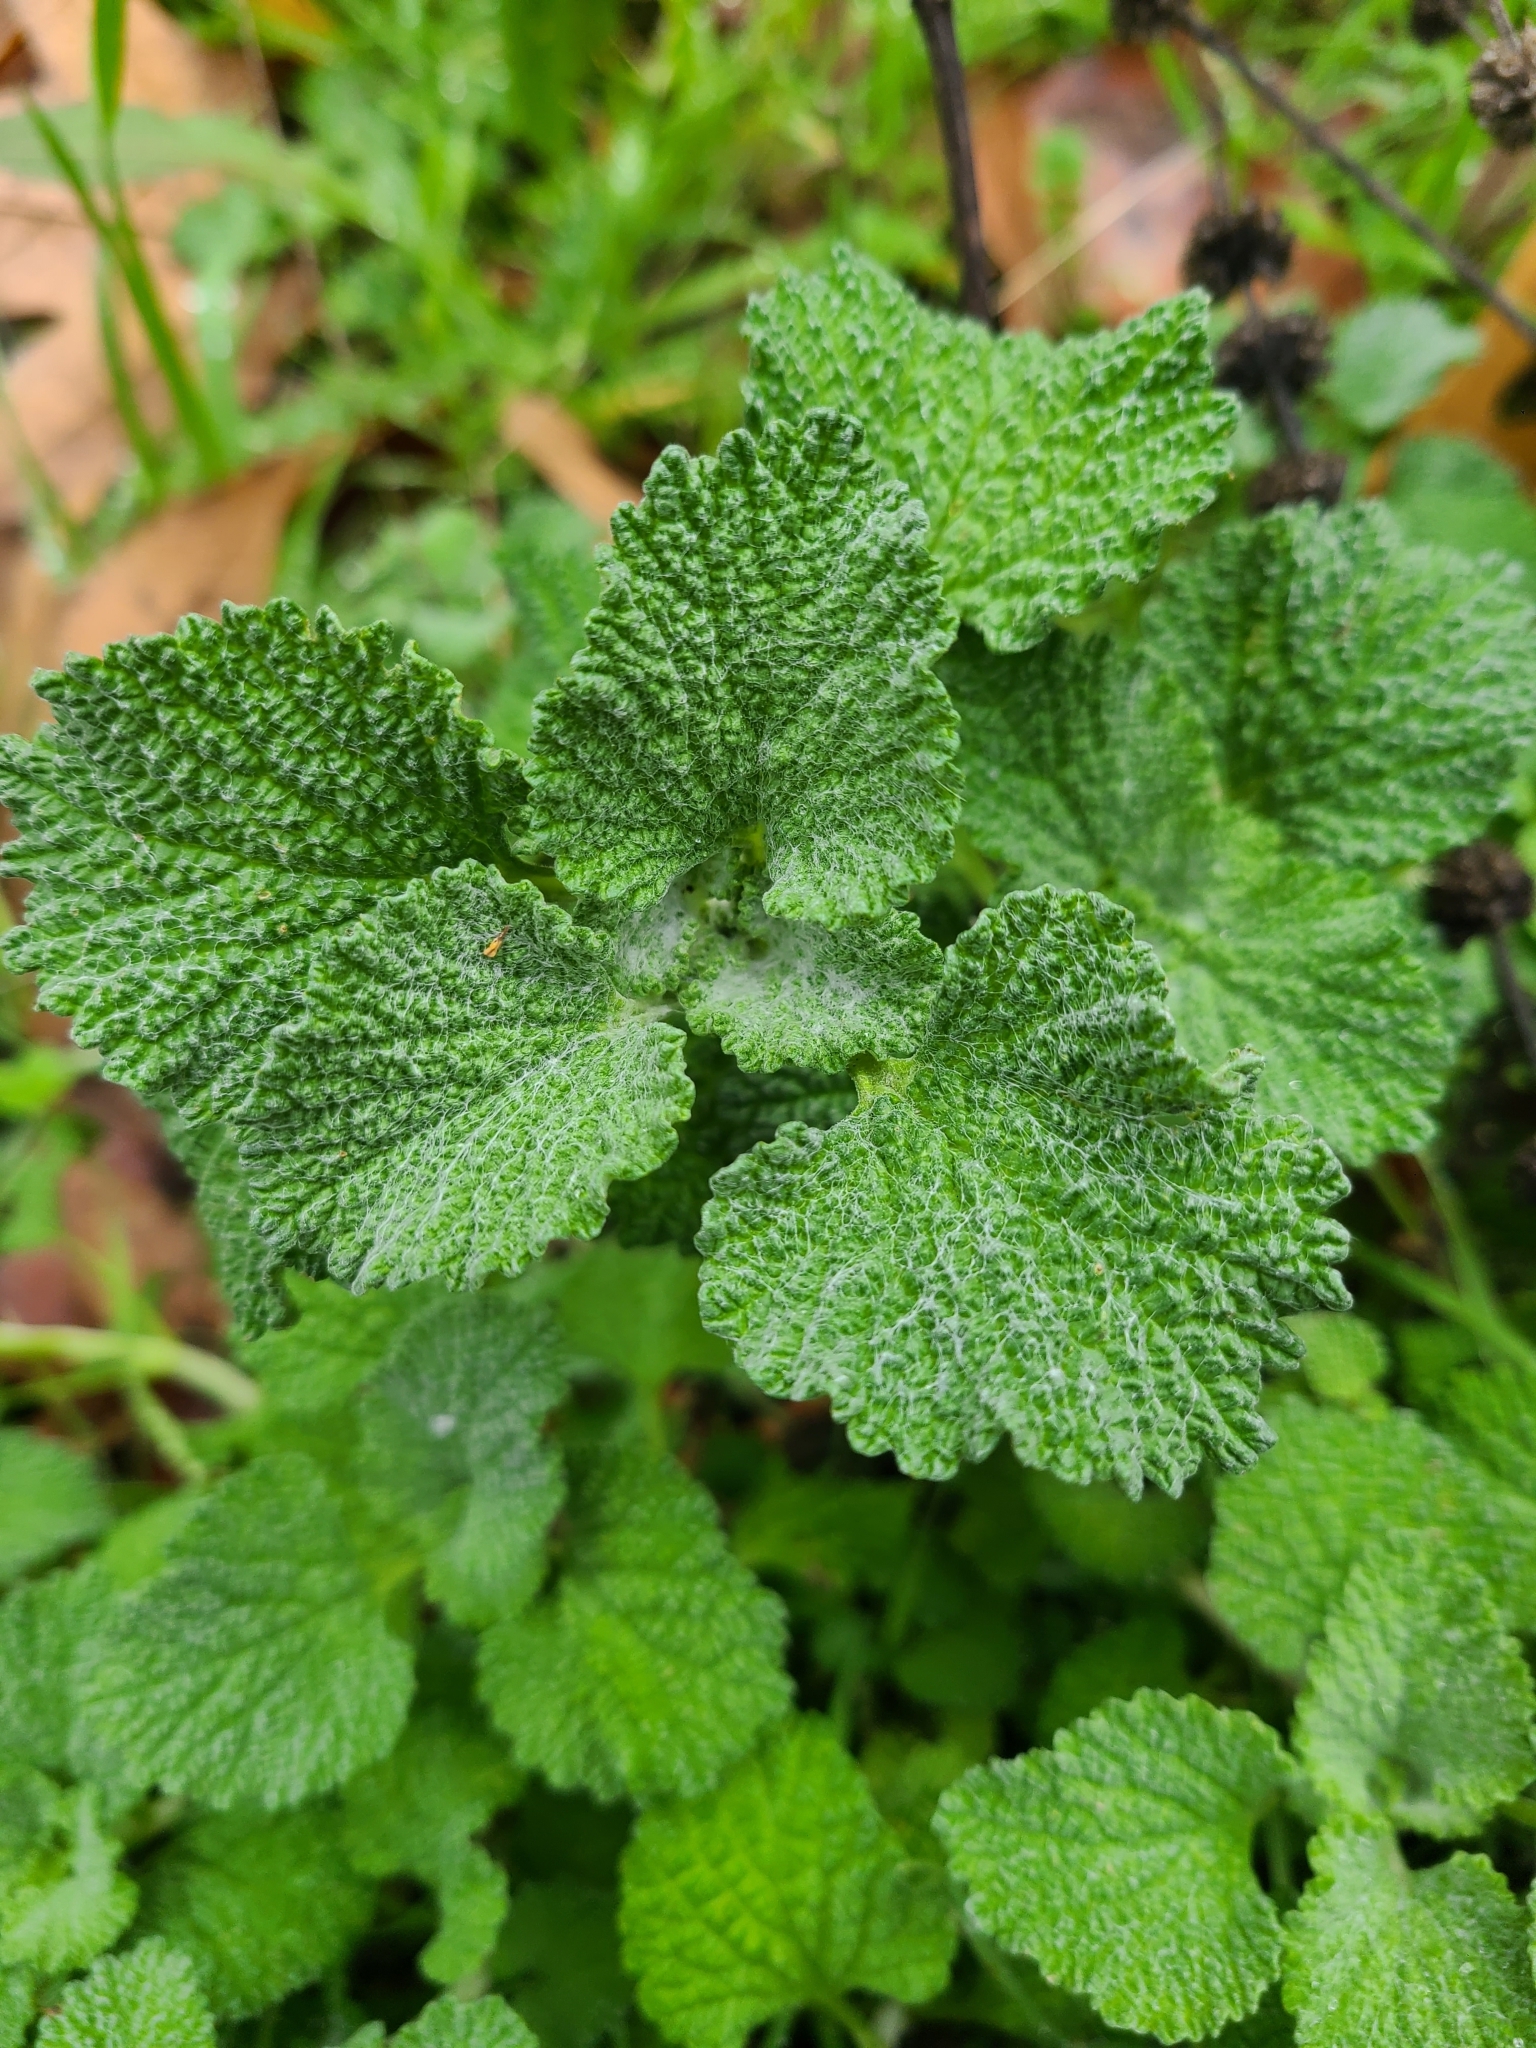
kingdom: Plantae
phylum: Tracheophyta
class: Magnoliopsida
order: Lamiales
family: Lamiaceae
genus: Marrubium
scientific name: Marrubium vulgare
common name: Horehound
